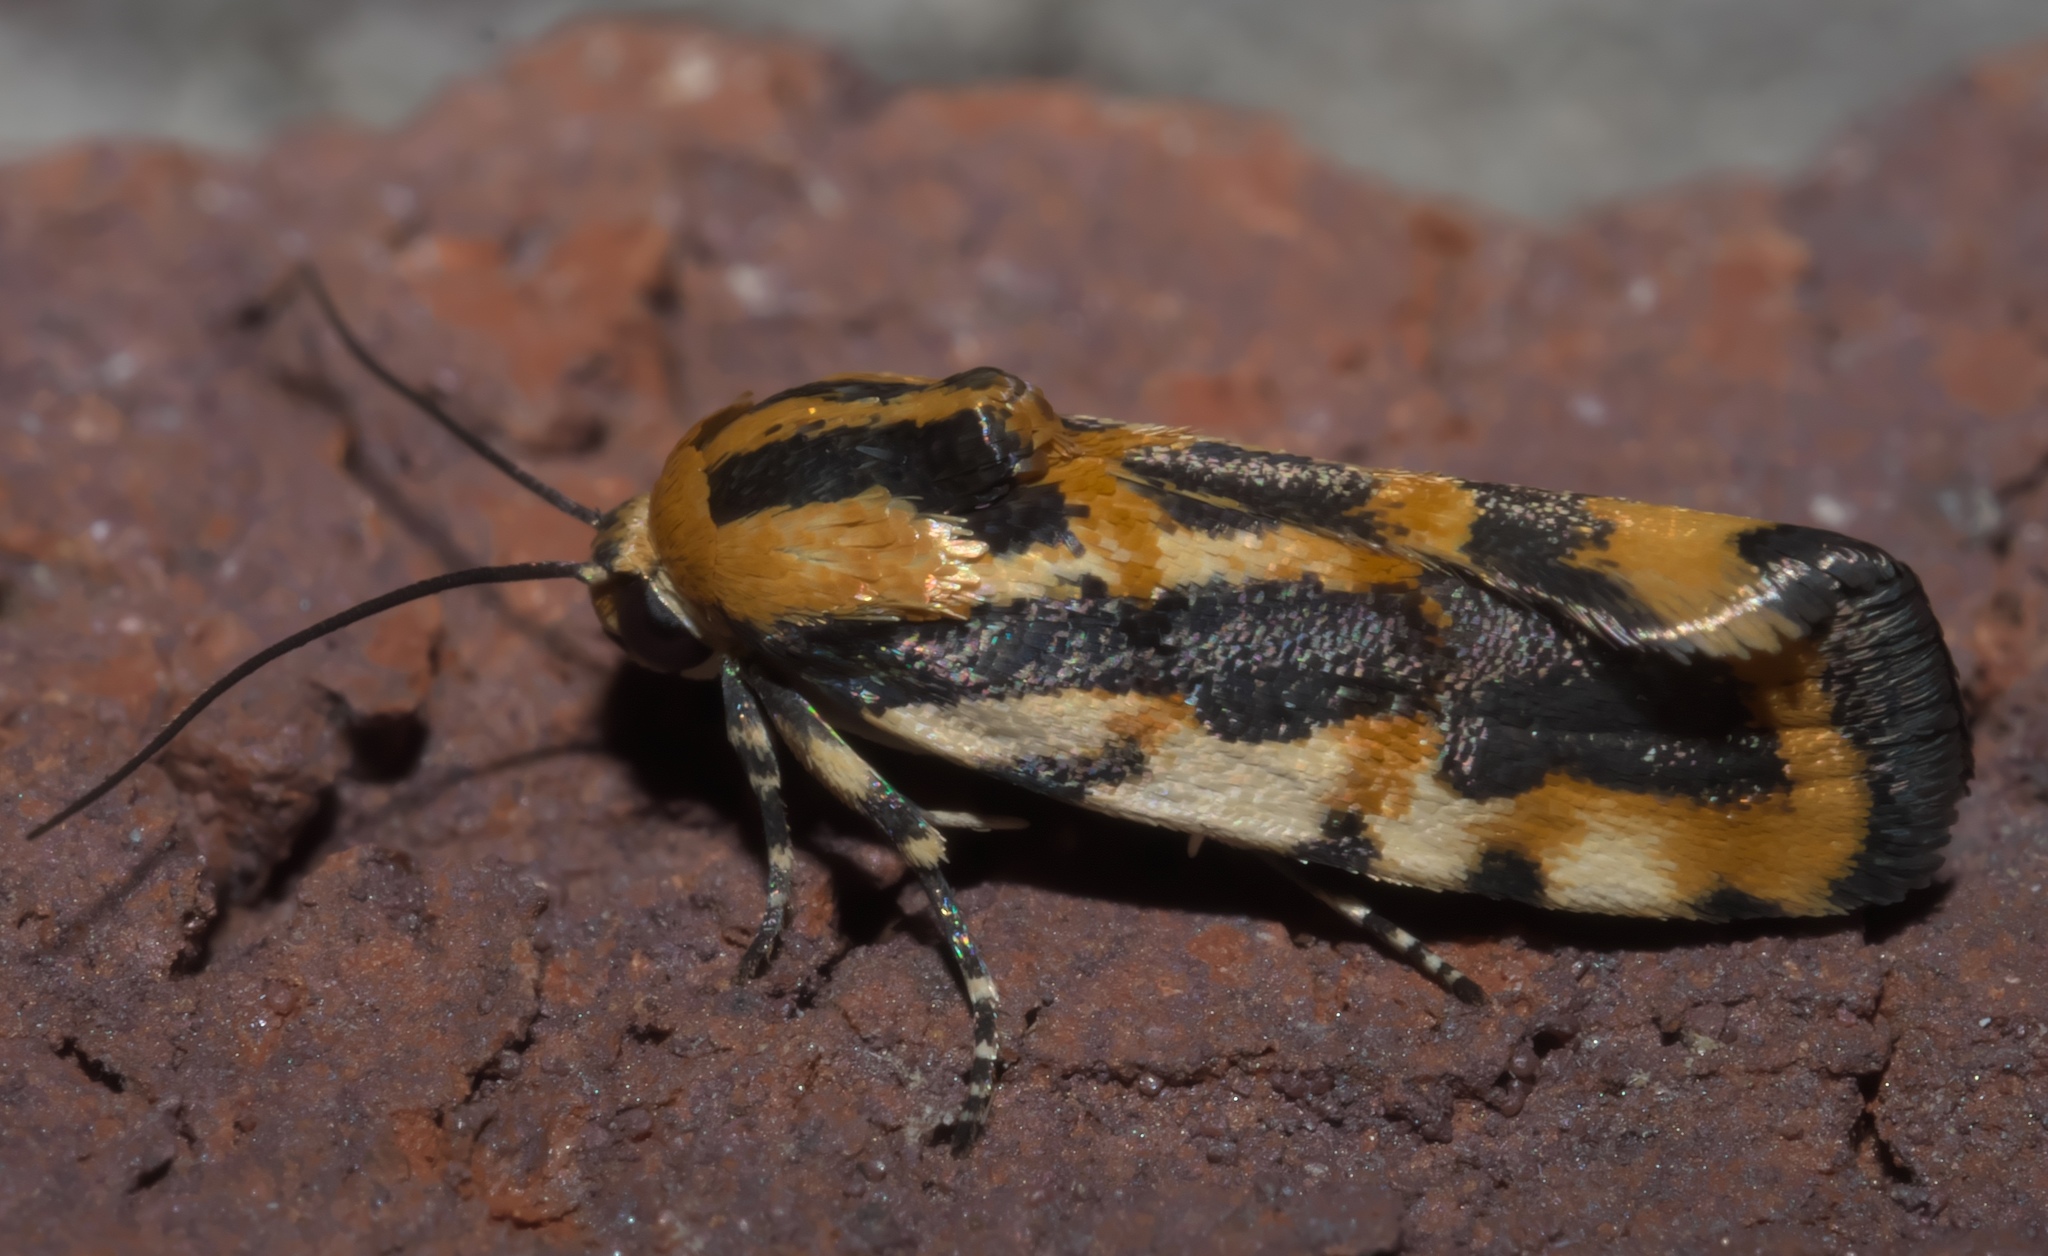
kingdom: Animalia
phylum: Arthropoda
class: Insecta
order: Lepidoptera
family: Noctuidae
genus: Acontia
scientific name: Acontia leo
